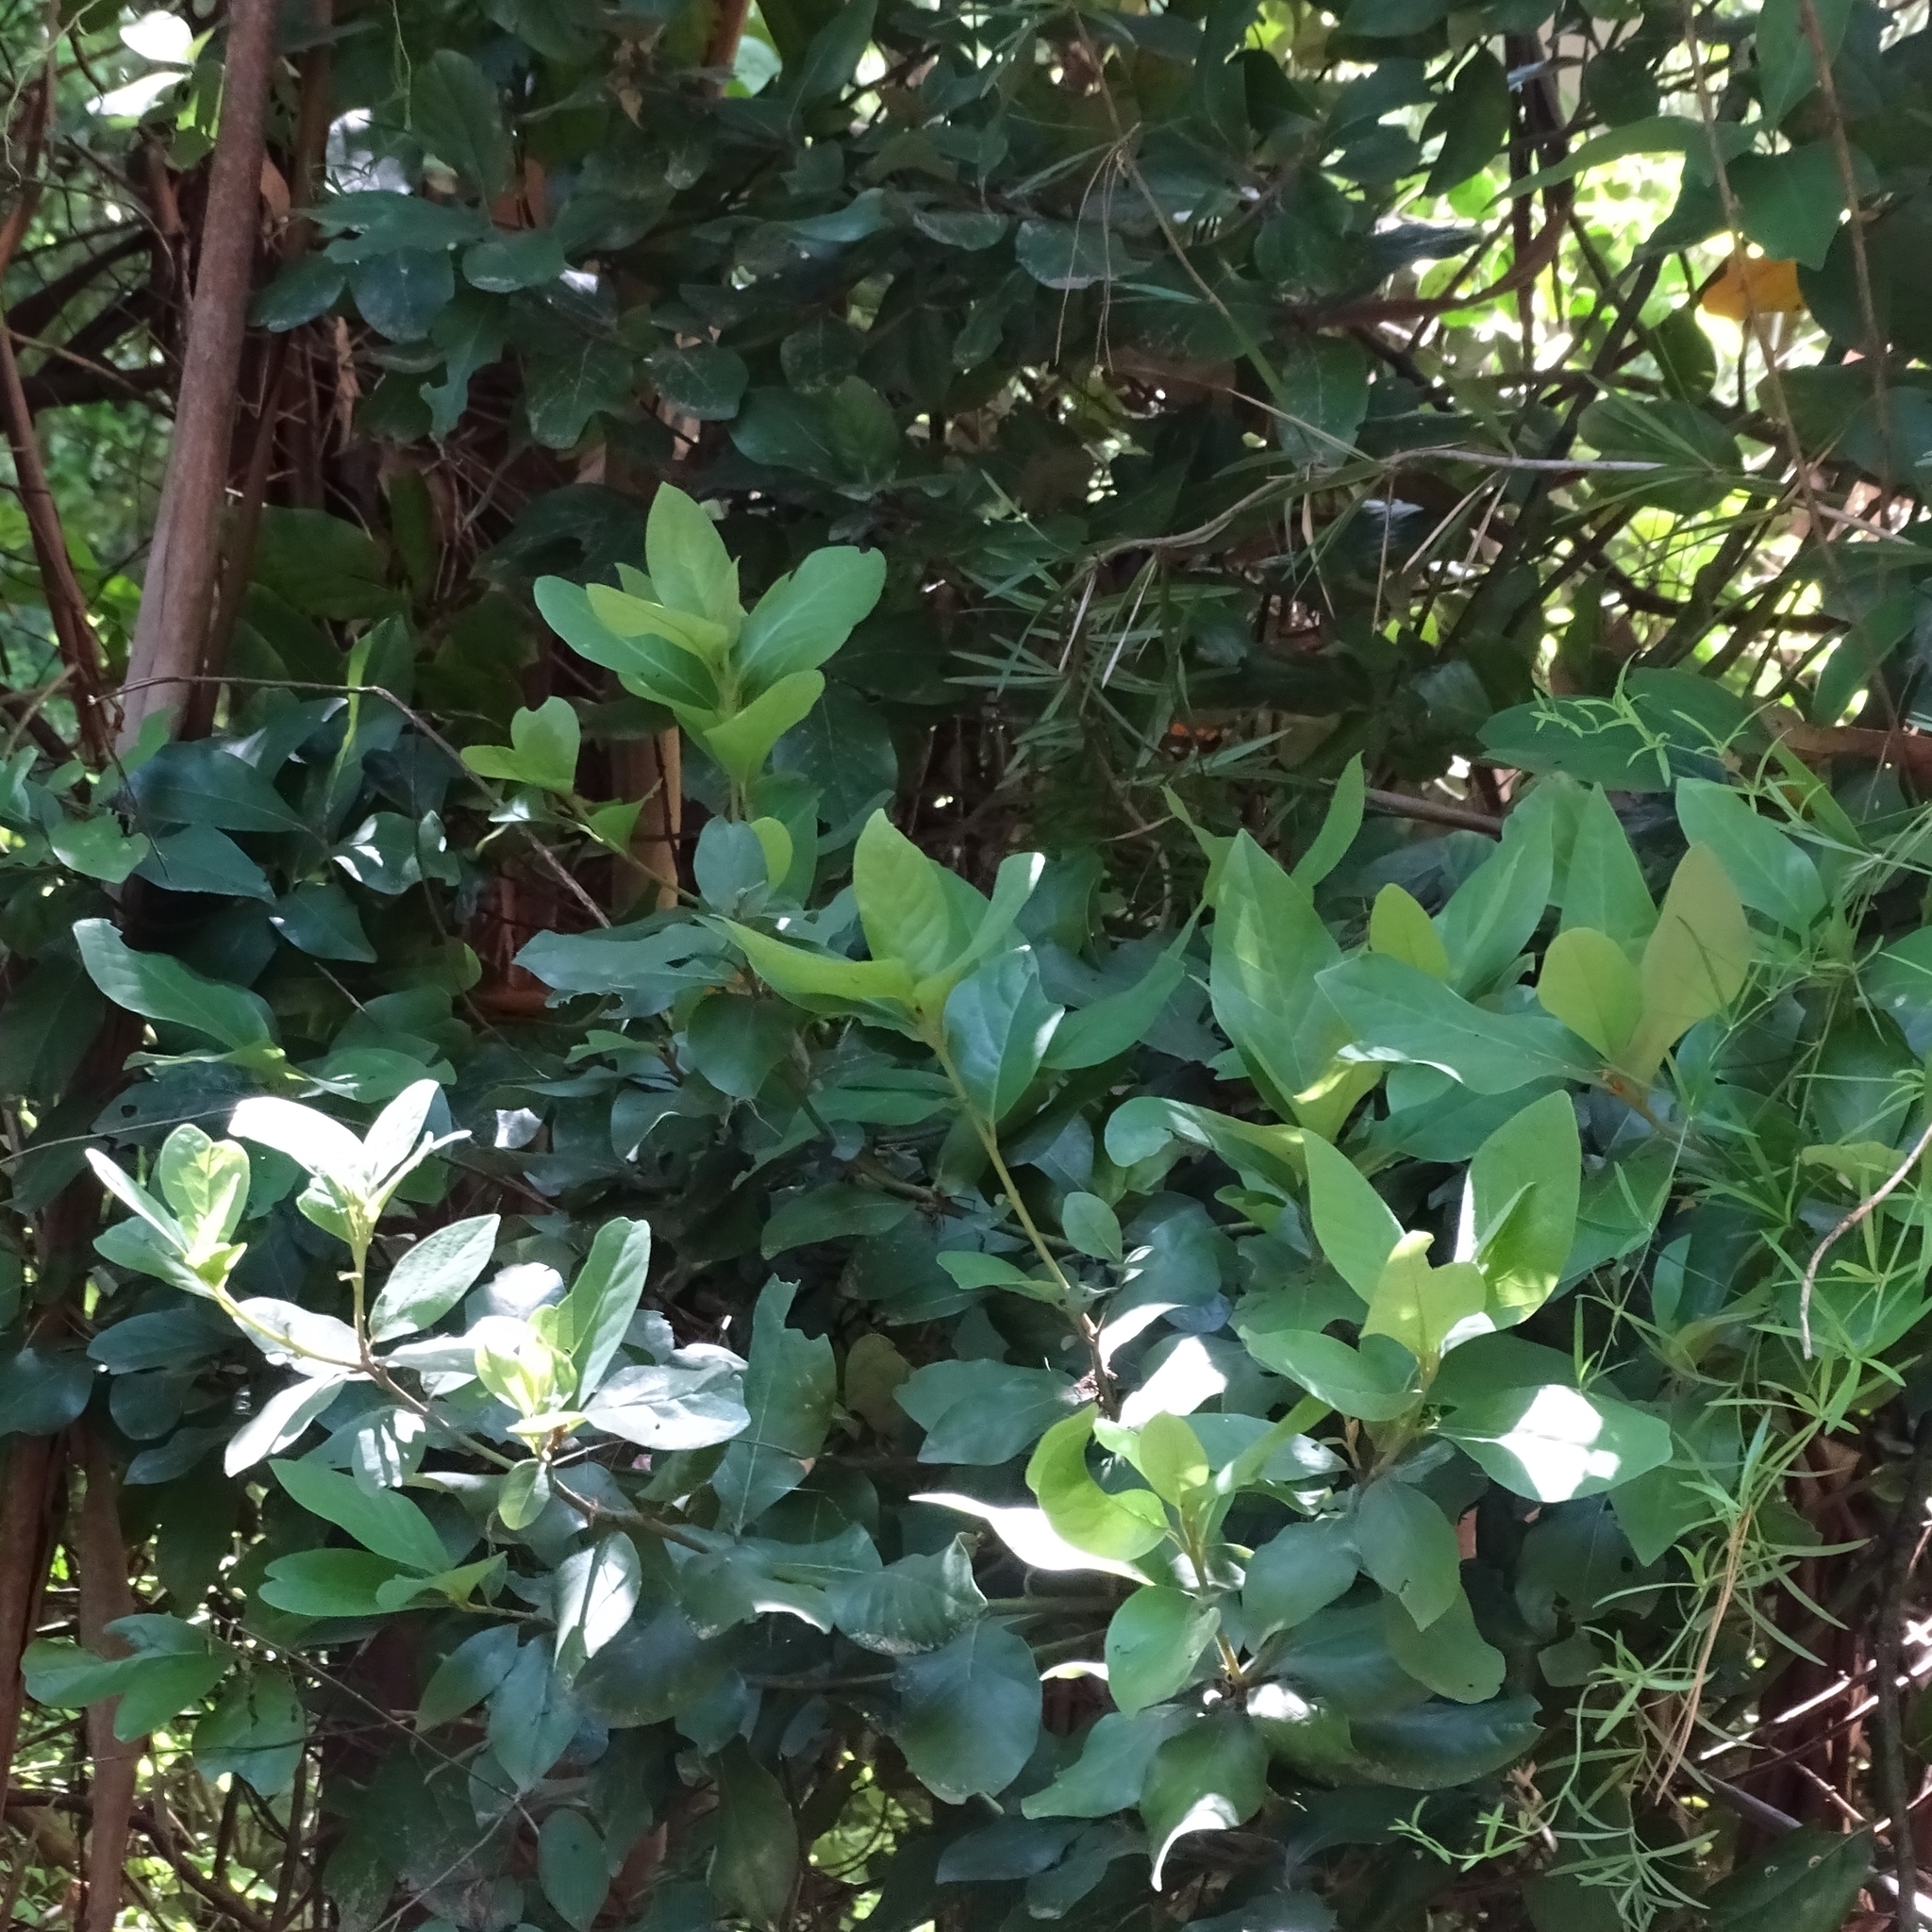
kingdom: Plantae
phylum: Tracheophyta
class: Magnoliopsida
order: Laurales
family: Lauraceae
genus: Persea
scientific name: Persea lingue
